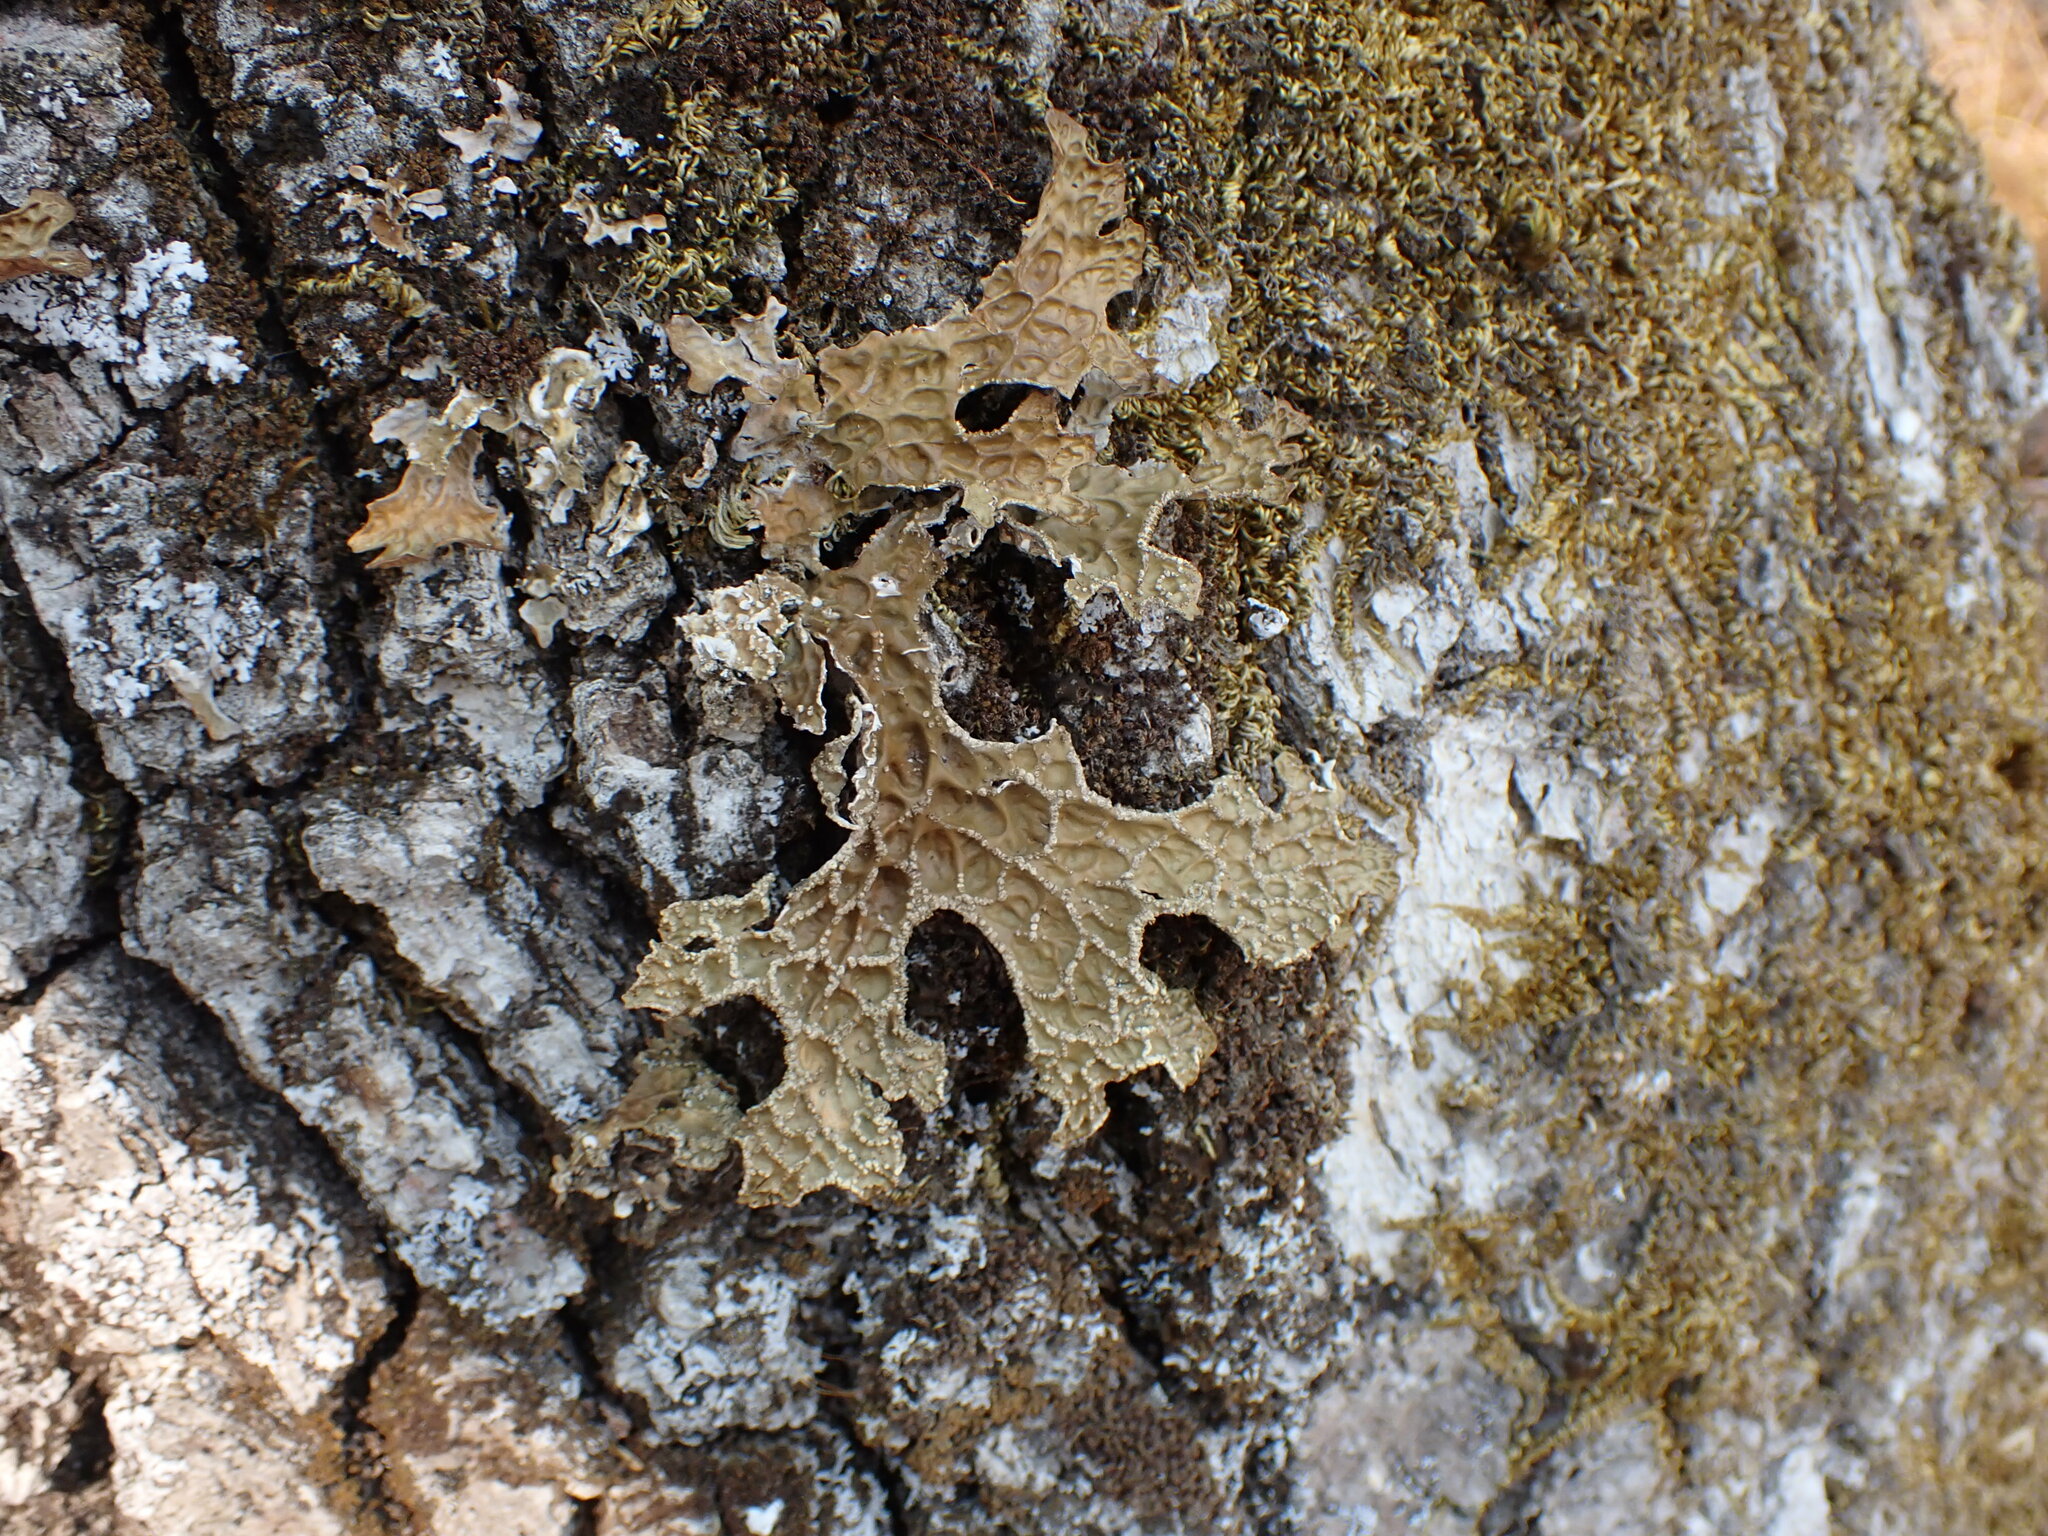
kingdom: Fungi
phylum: Ascomycota
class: Lecanoromycetes
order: Peltigerales
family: Lobariaceae
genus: Lobaria
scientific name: Lobaria pulmonaria
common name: Lungwort
